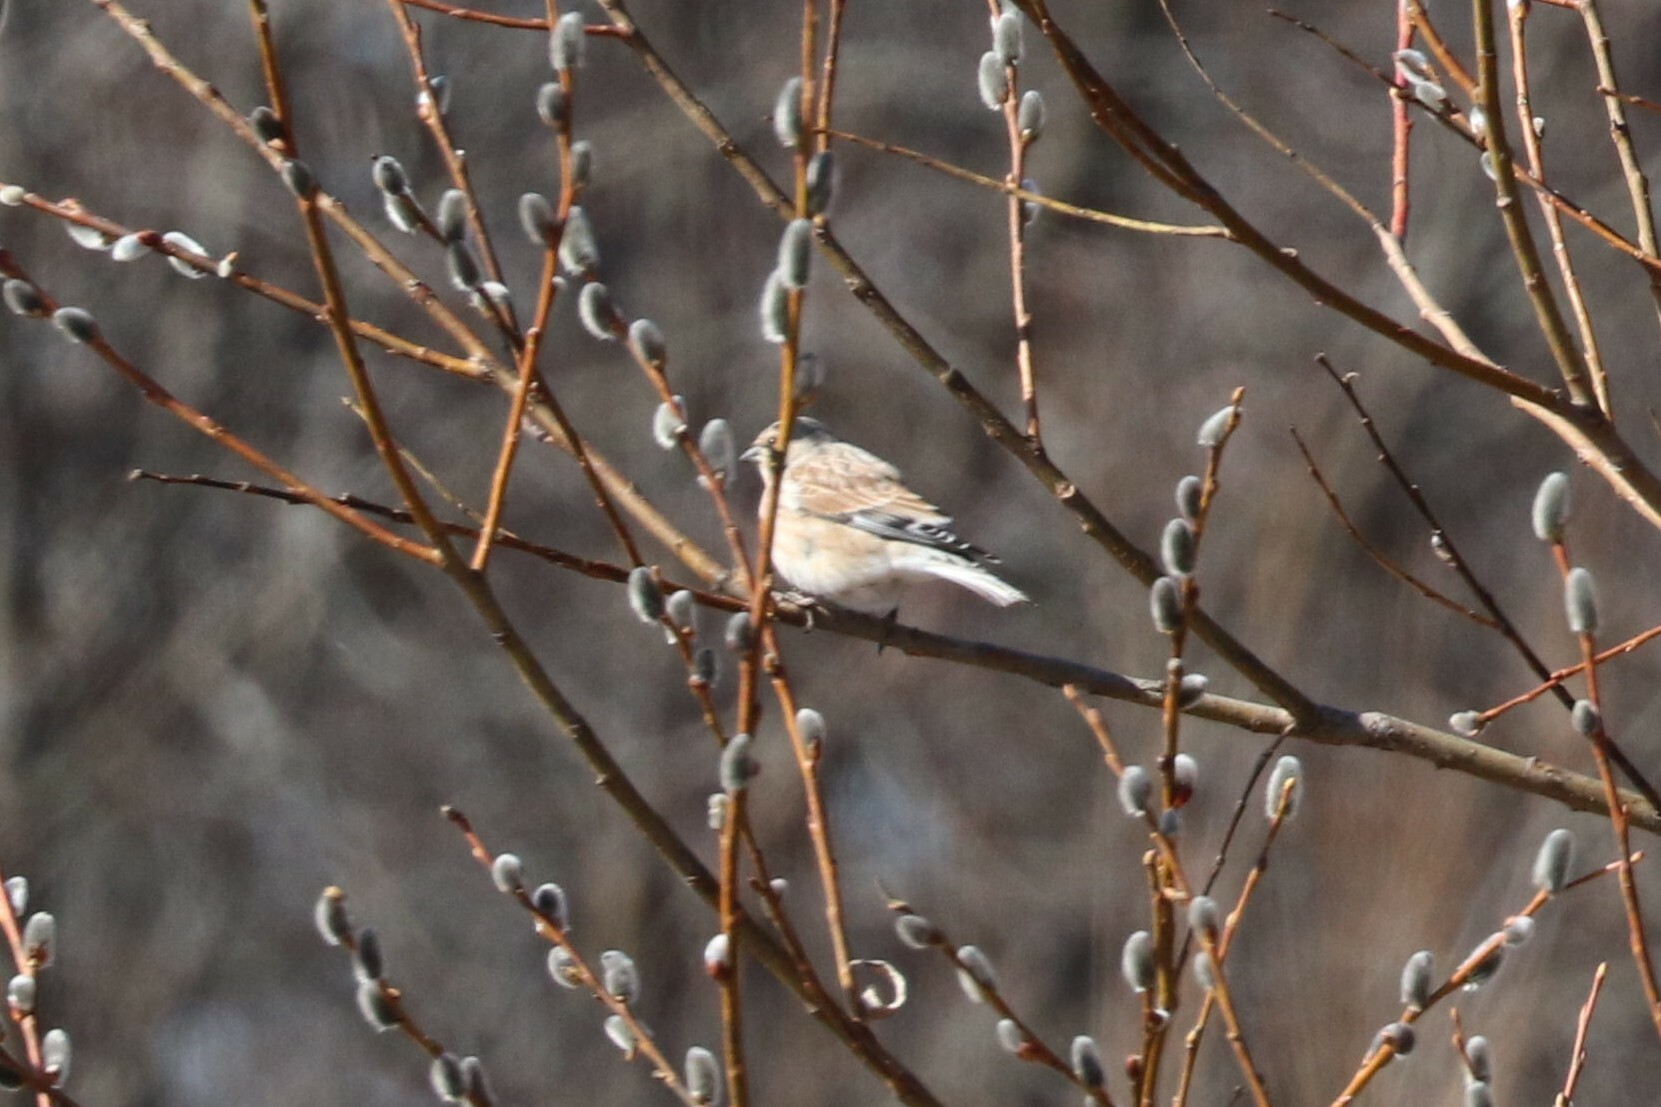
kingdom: Animalia
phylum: Chordata
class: Aves
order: Passeriformes
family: Fringillidae
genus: Linaria
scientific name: Linaria cannabina
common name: Common linnet
